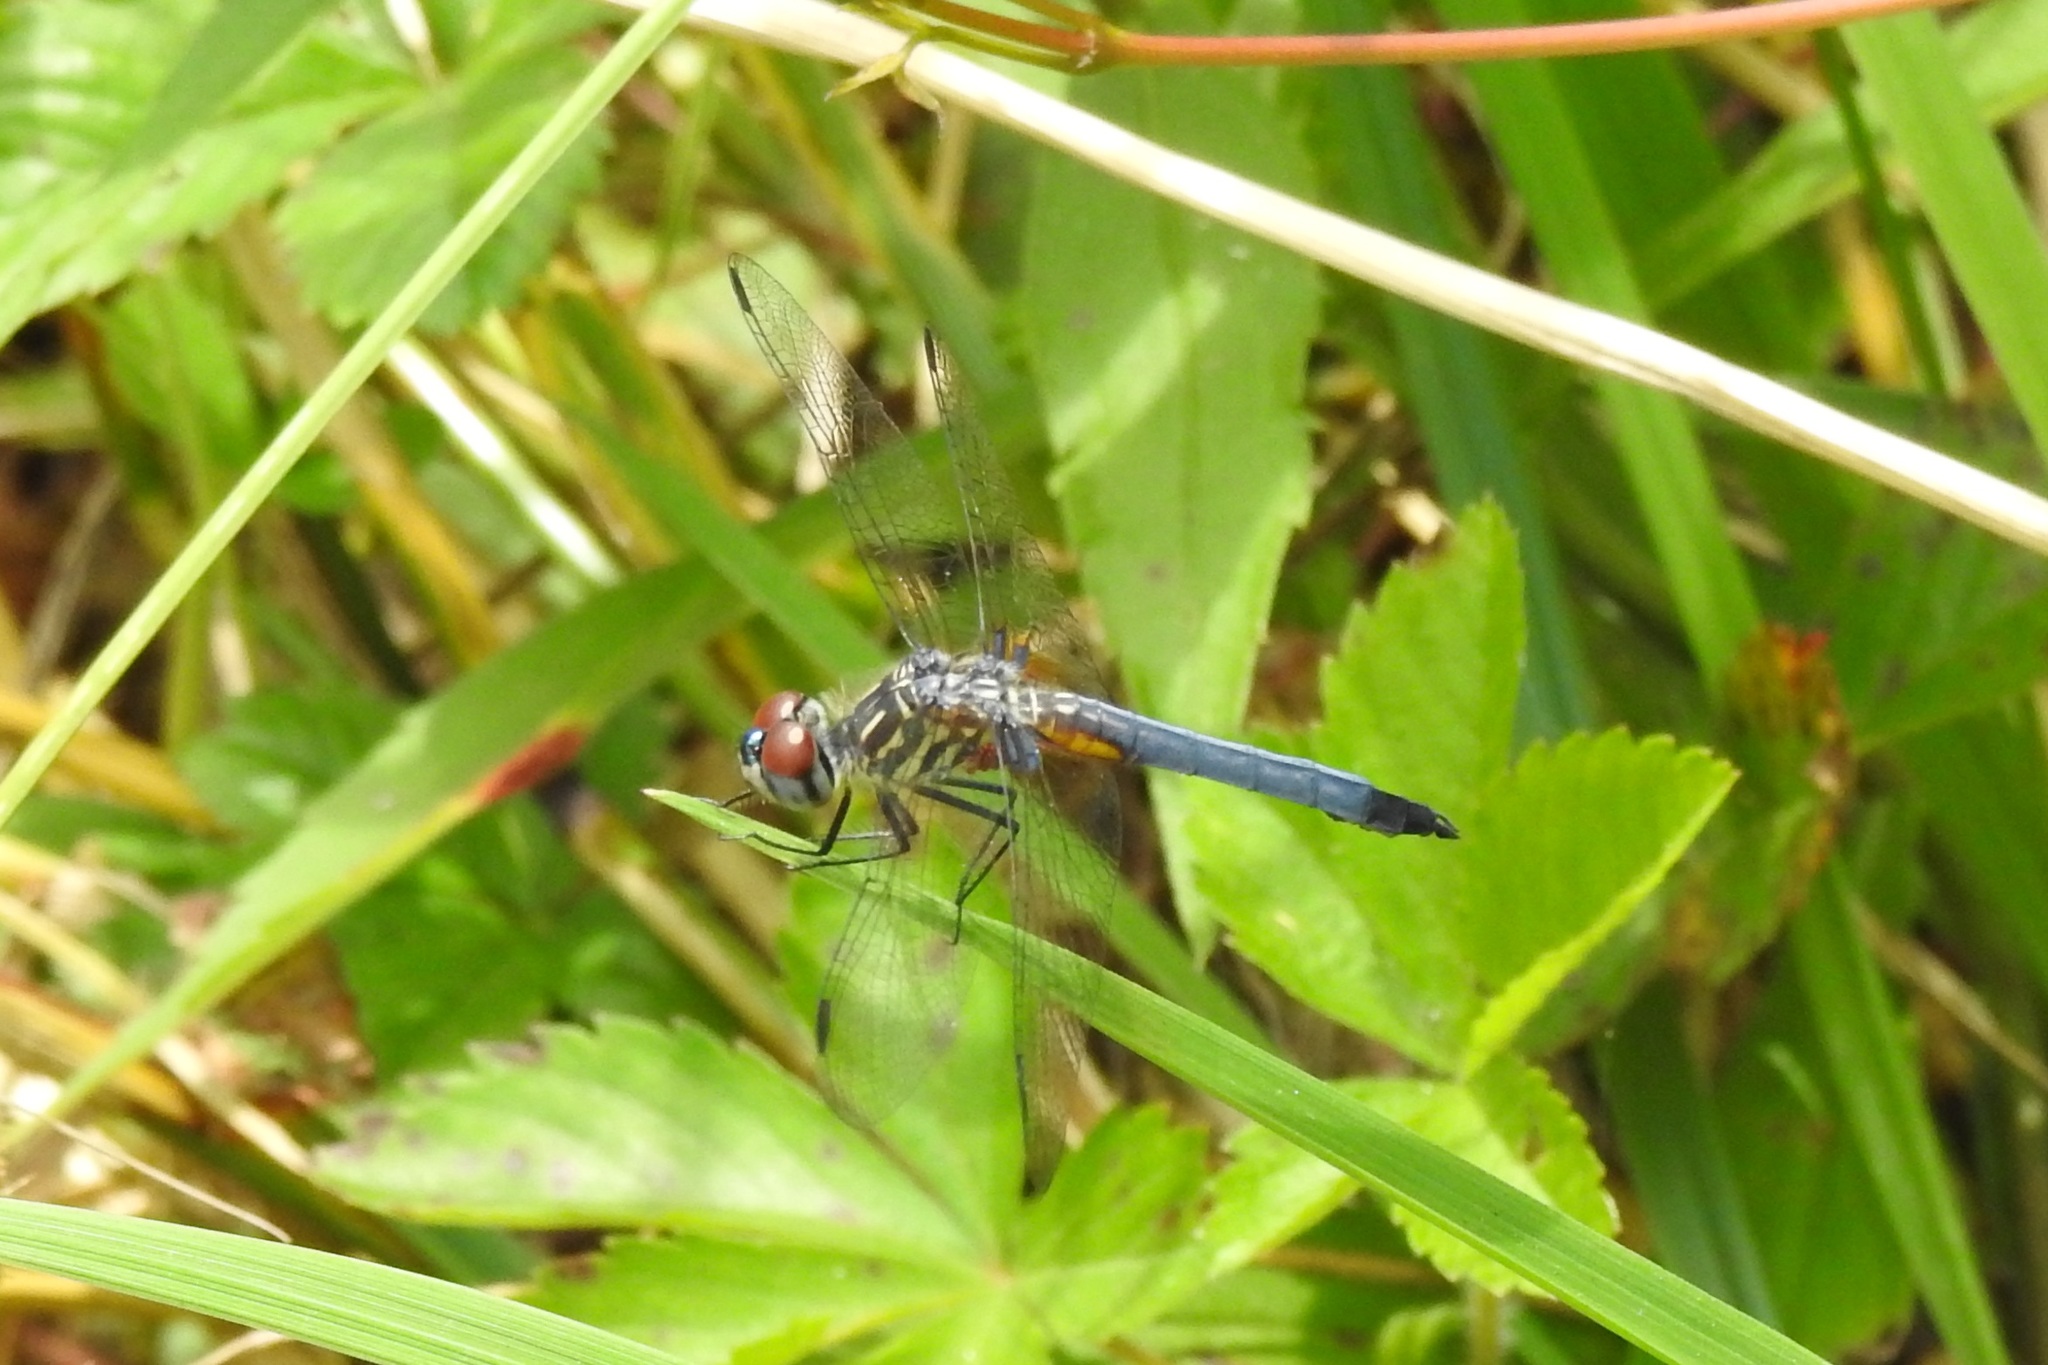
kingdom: Animalia
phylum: Arthropoda
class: Insecta
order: Odonata
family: Libellulidae
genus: Pachydiplax
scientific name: Pachydiplax longipennis
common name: Blue dasher
